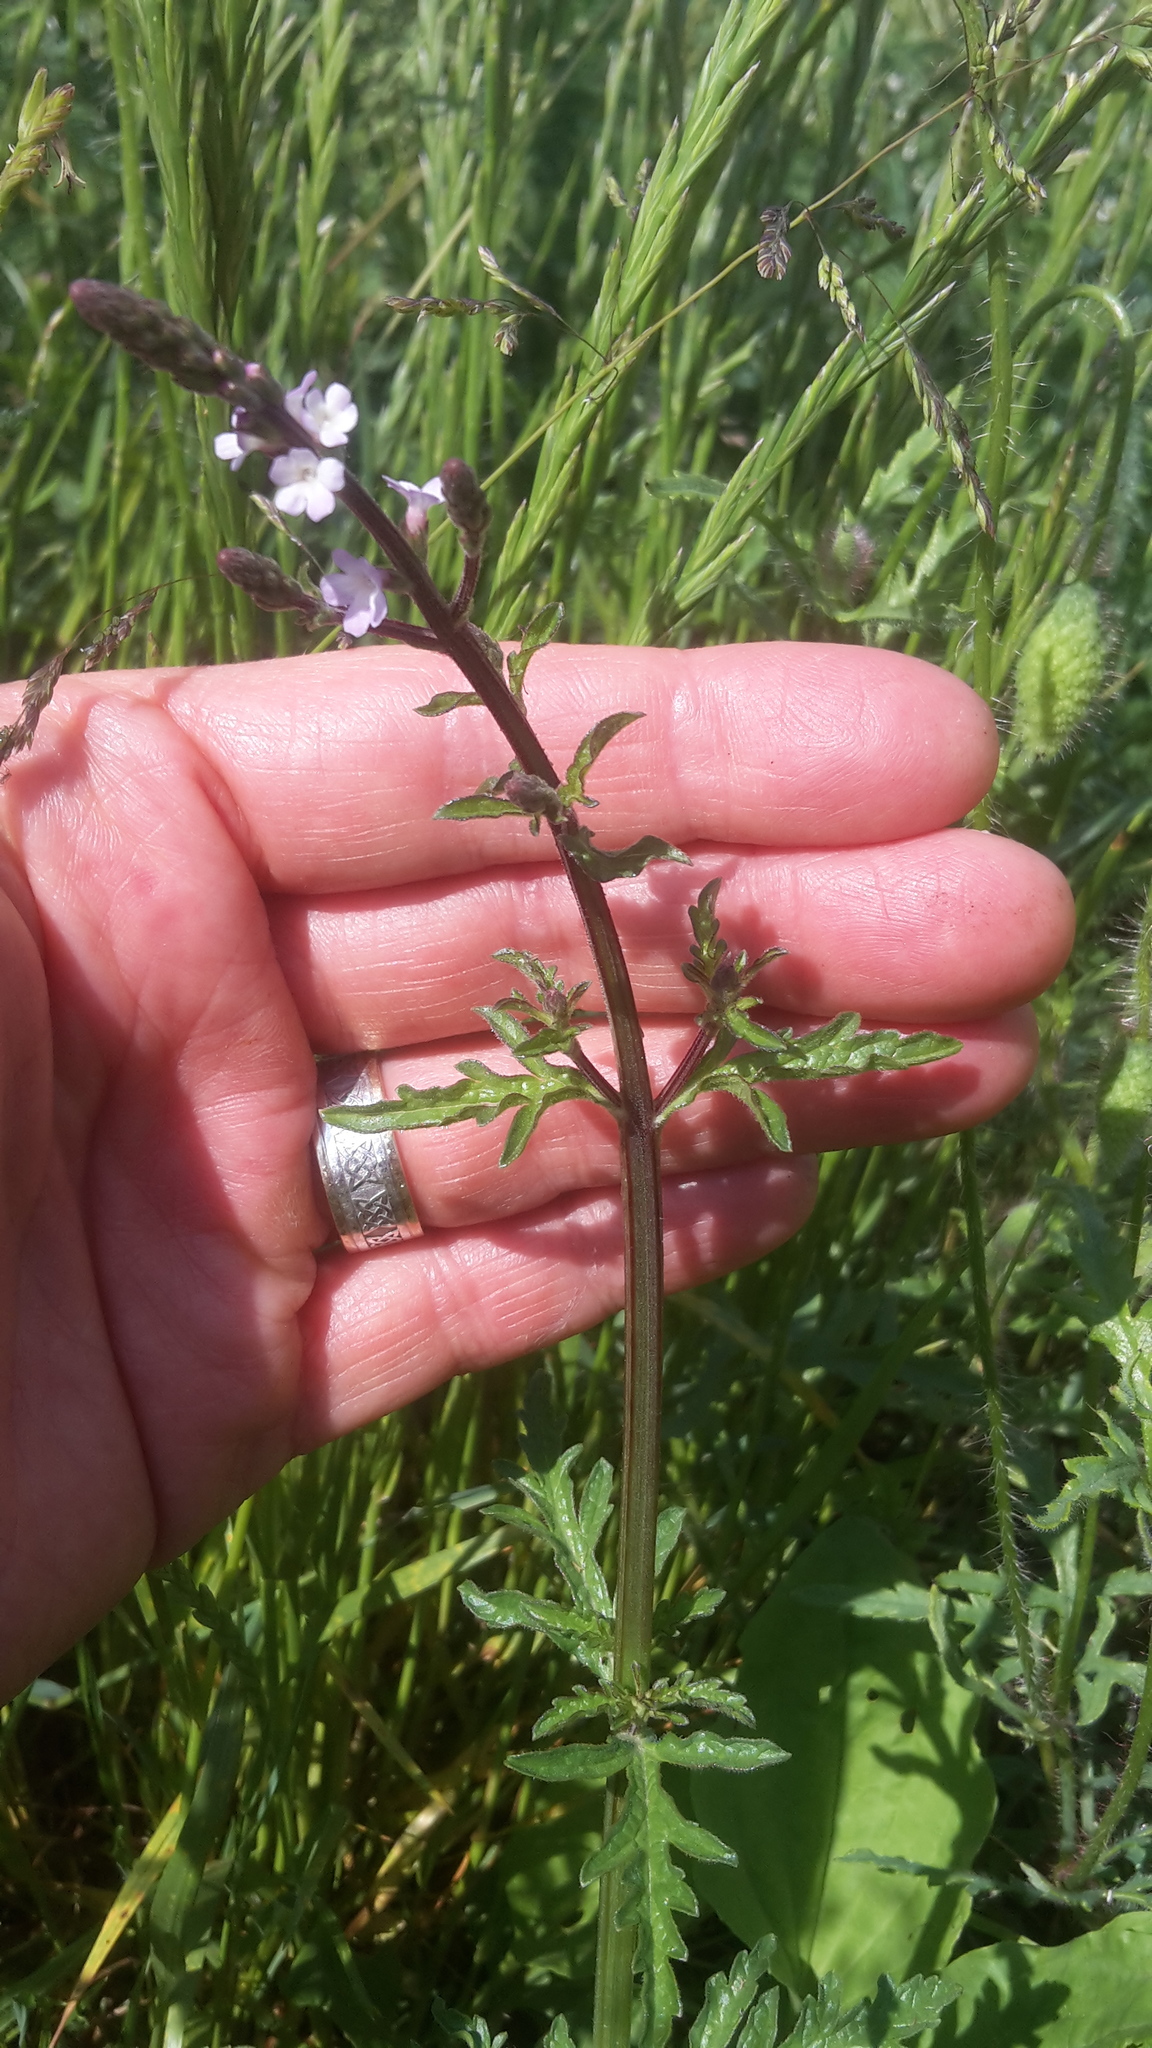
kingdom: Plantae
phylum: Tracheophyta
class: Magnoliopsida
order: Lamiales
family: Verbenaceae
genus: Verbena
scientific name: Verbena officinalis
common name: Vervain
